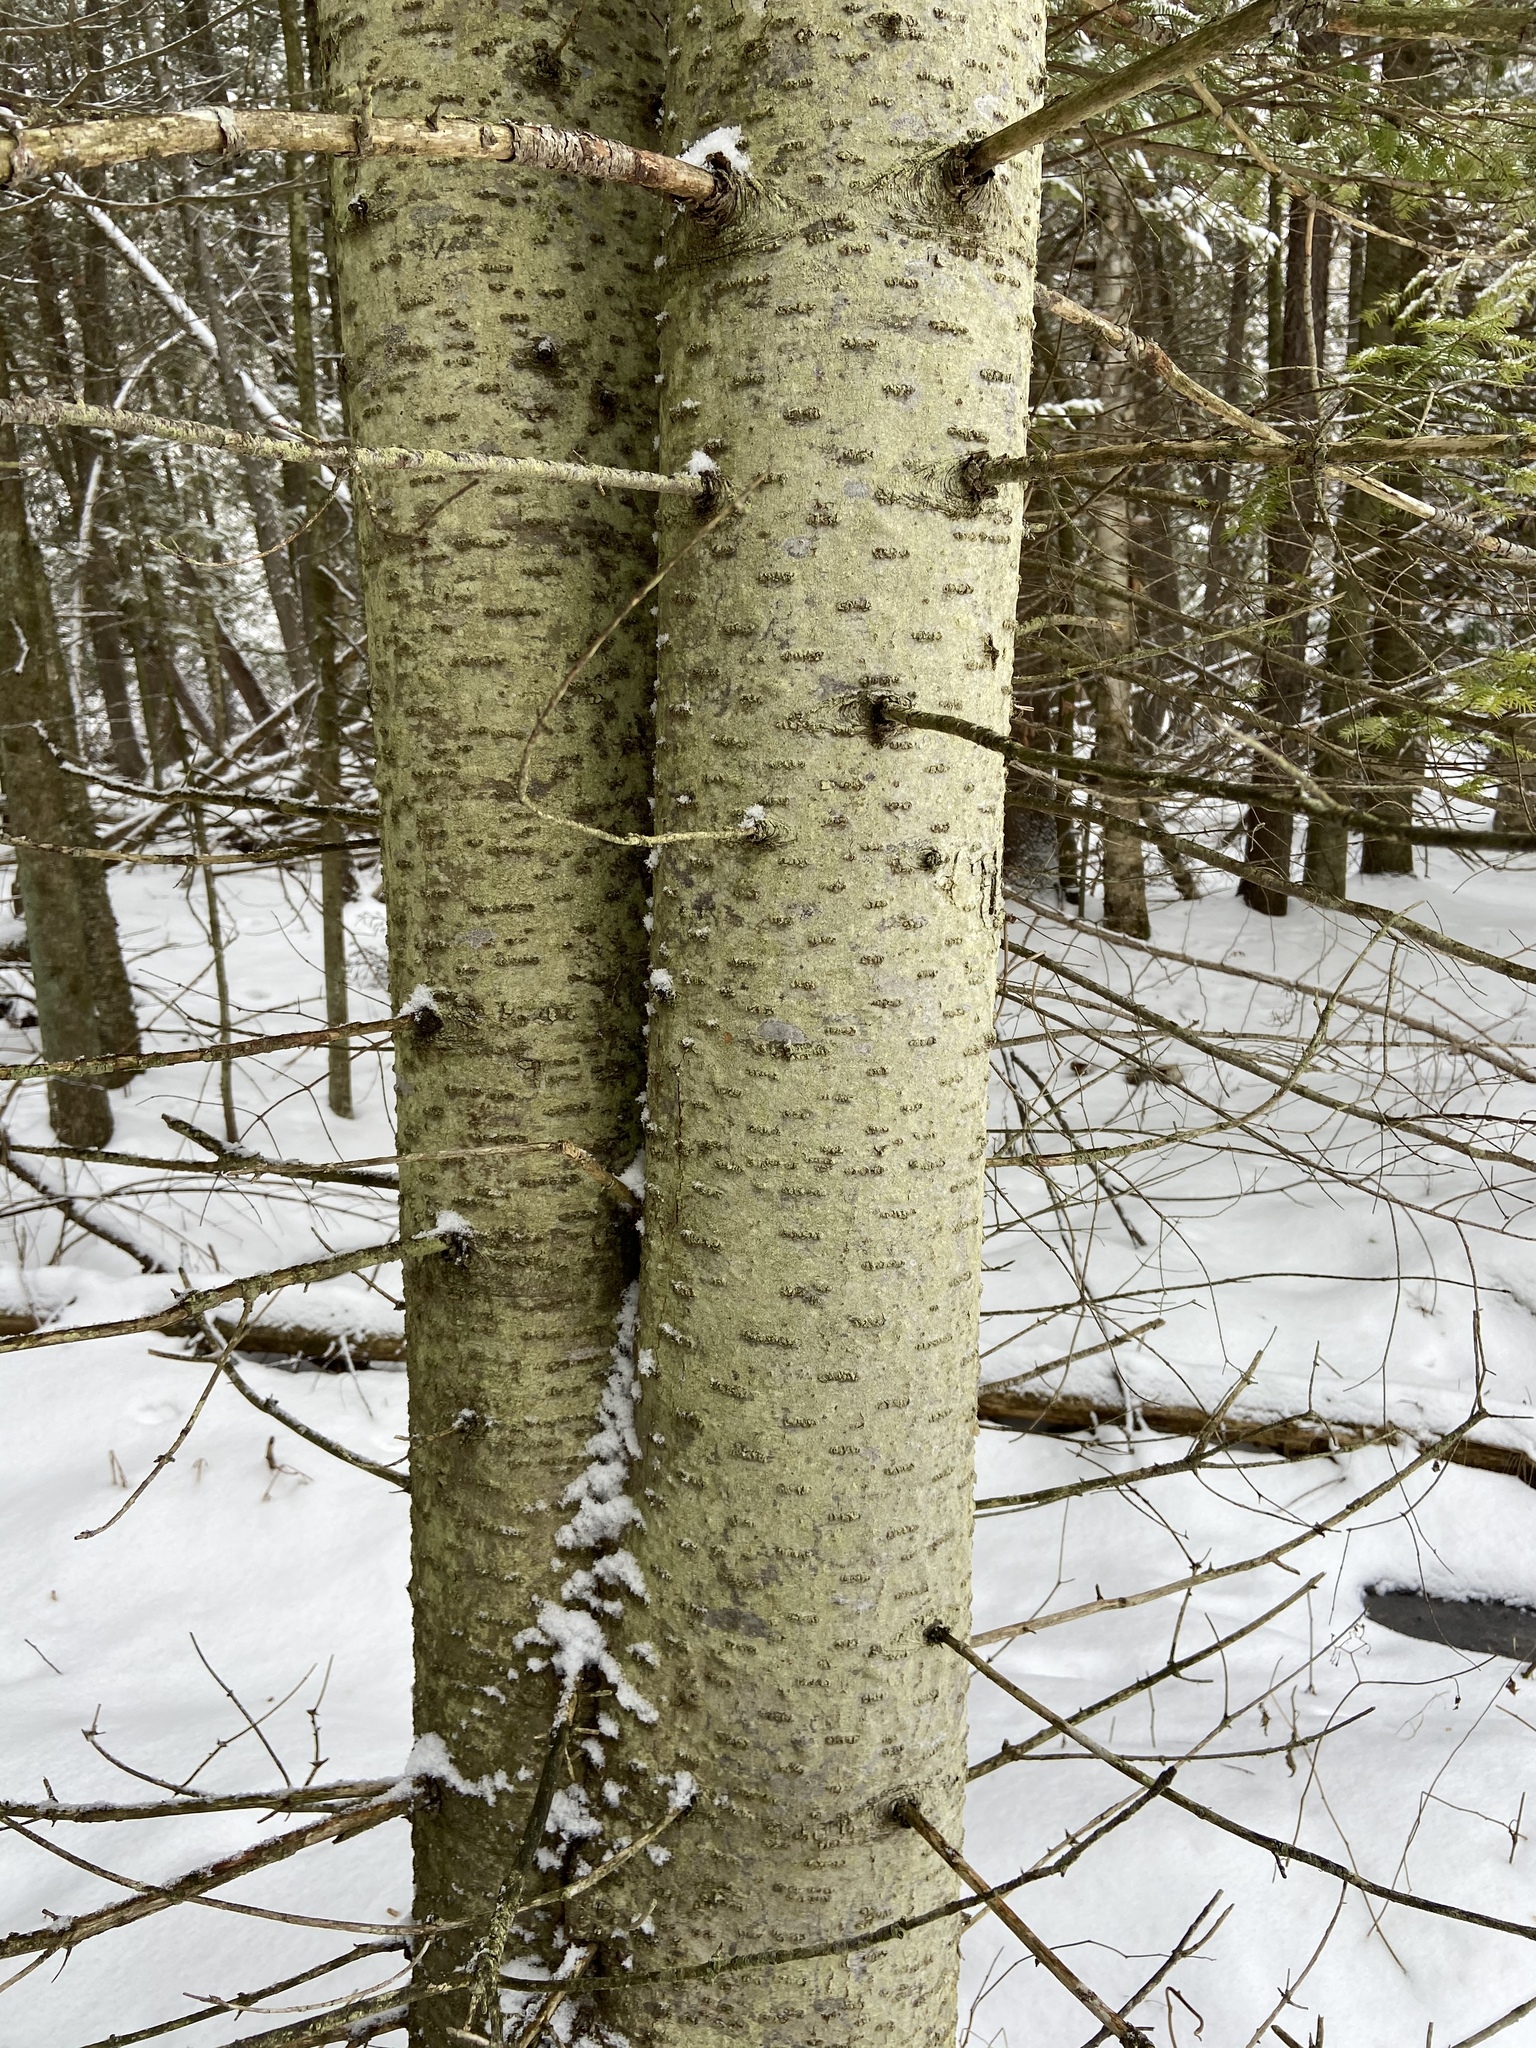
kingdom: Plantae
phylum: Tracheophyta
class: Pinopsida
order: Pinales
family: Pinaceae
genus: Abies
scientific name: Abies balsamea
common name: Balsam fir
